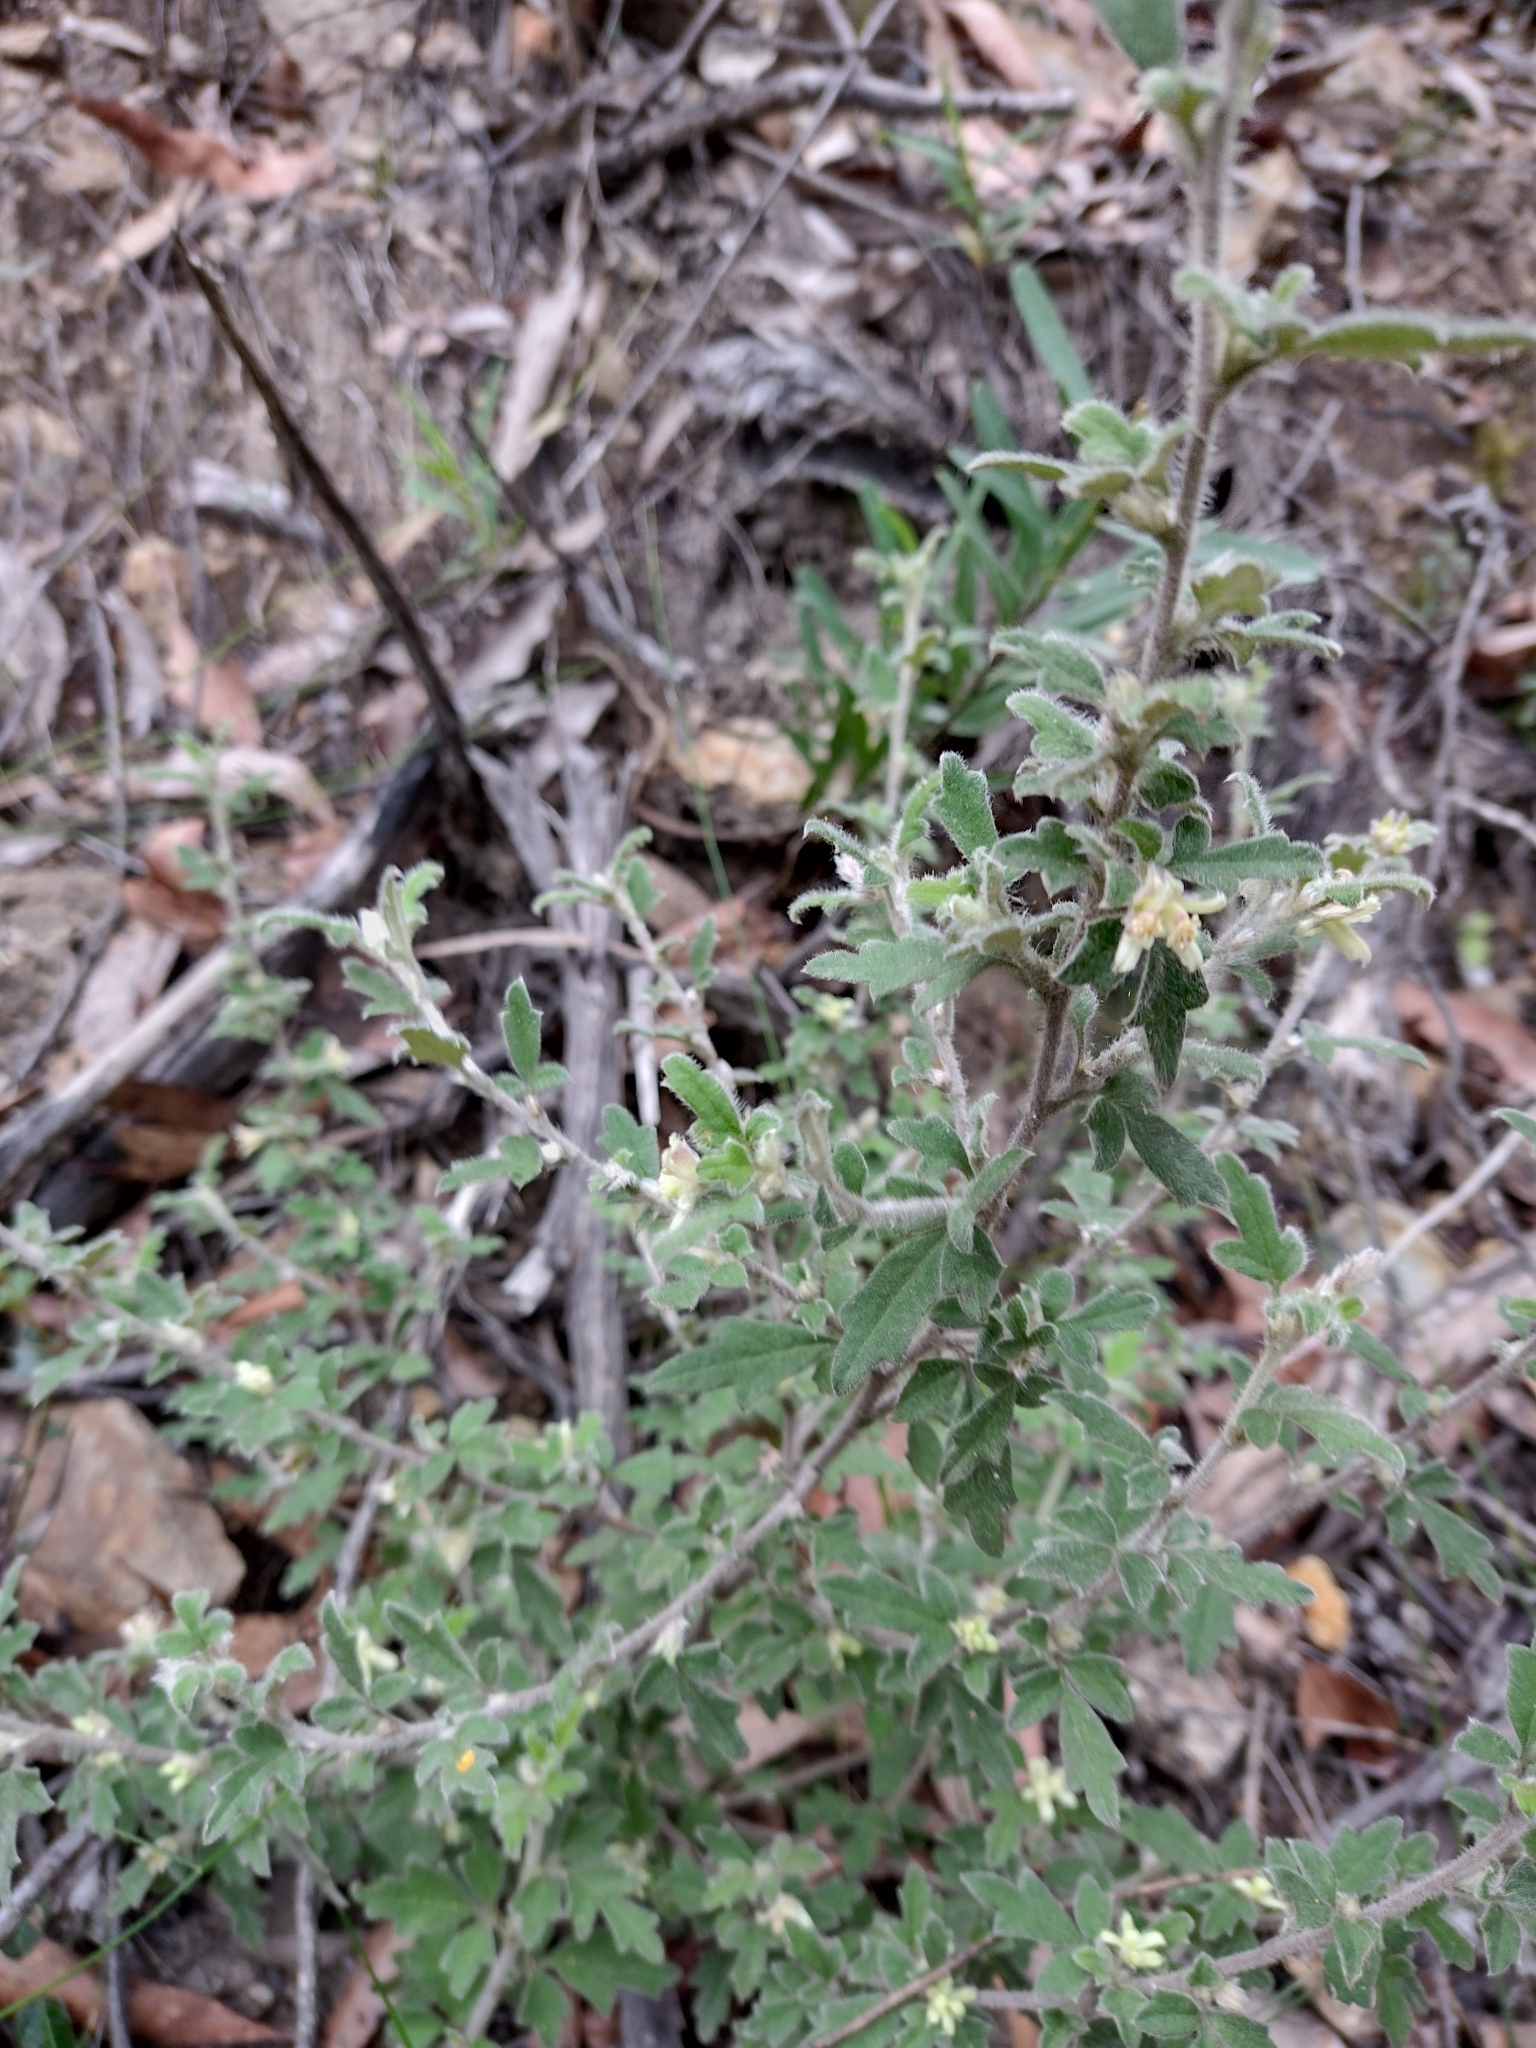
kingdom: Plantae
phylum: Tracheophyta
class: Magnoliopsida
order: Apiales
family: Apiaceae
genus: Xanthosia
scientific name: Xanthosia pilosa
